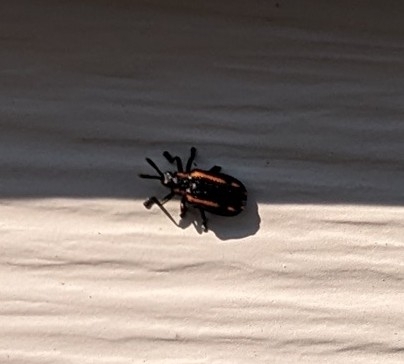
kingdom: Animalia
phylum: Arthropoda
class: Insecta
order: Coleoptera
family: Chrysomelidae
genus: Microrhopala
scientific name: Microrhopala xerene
